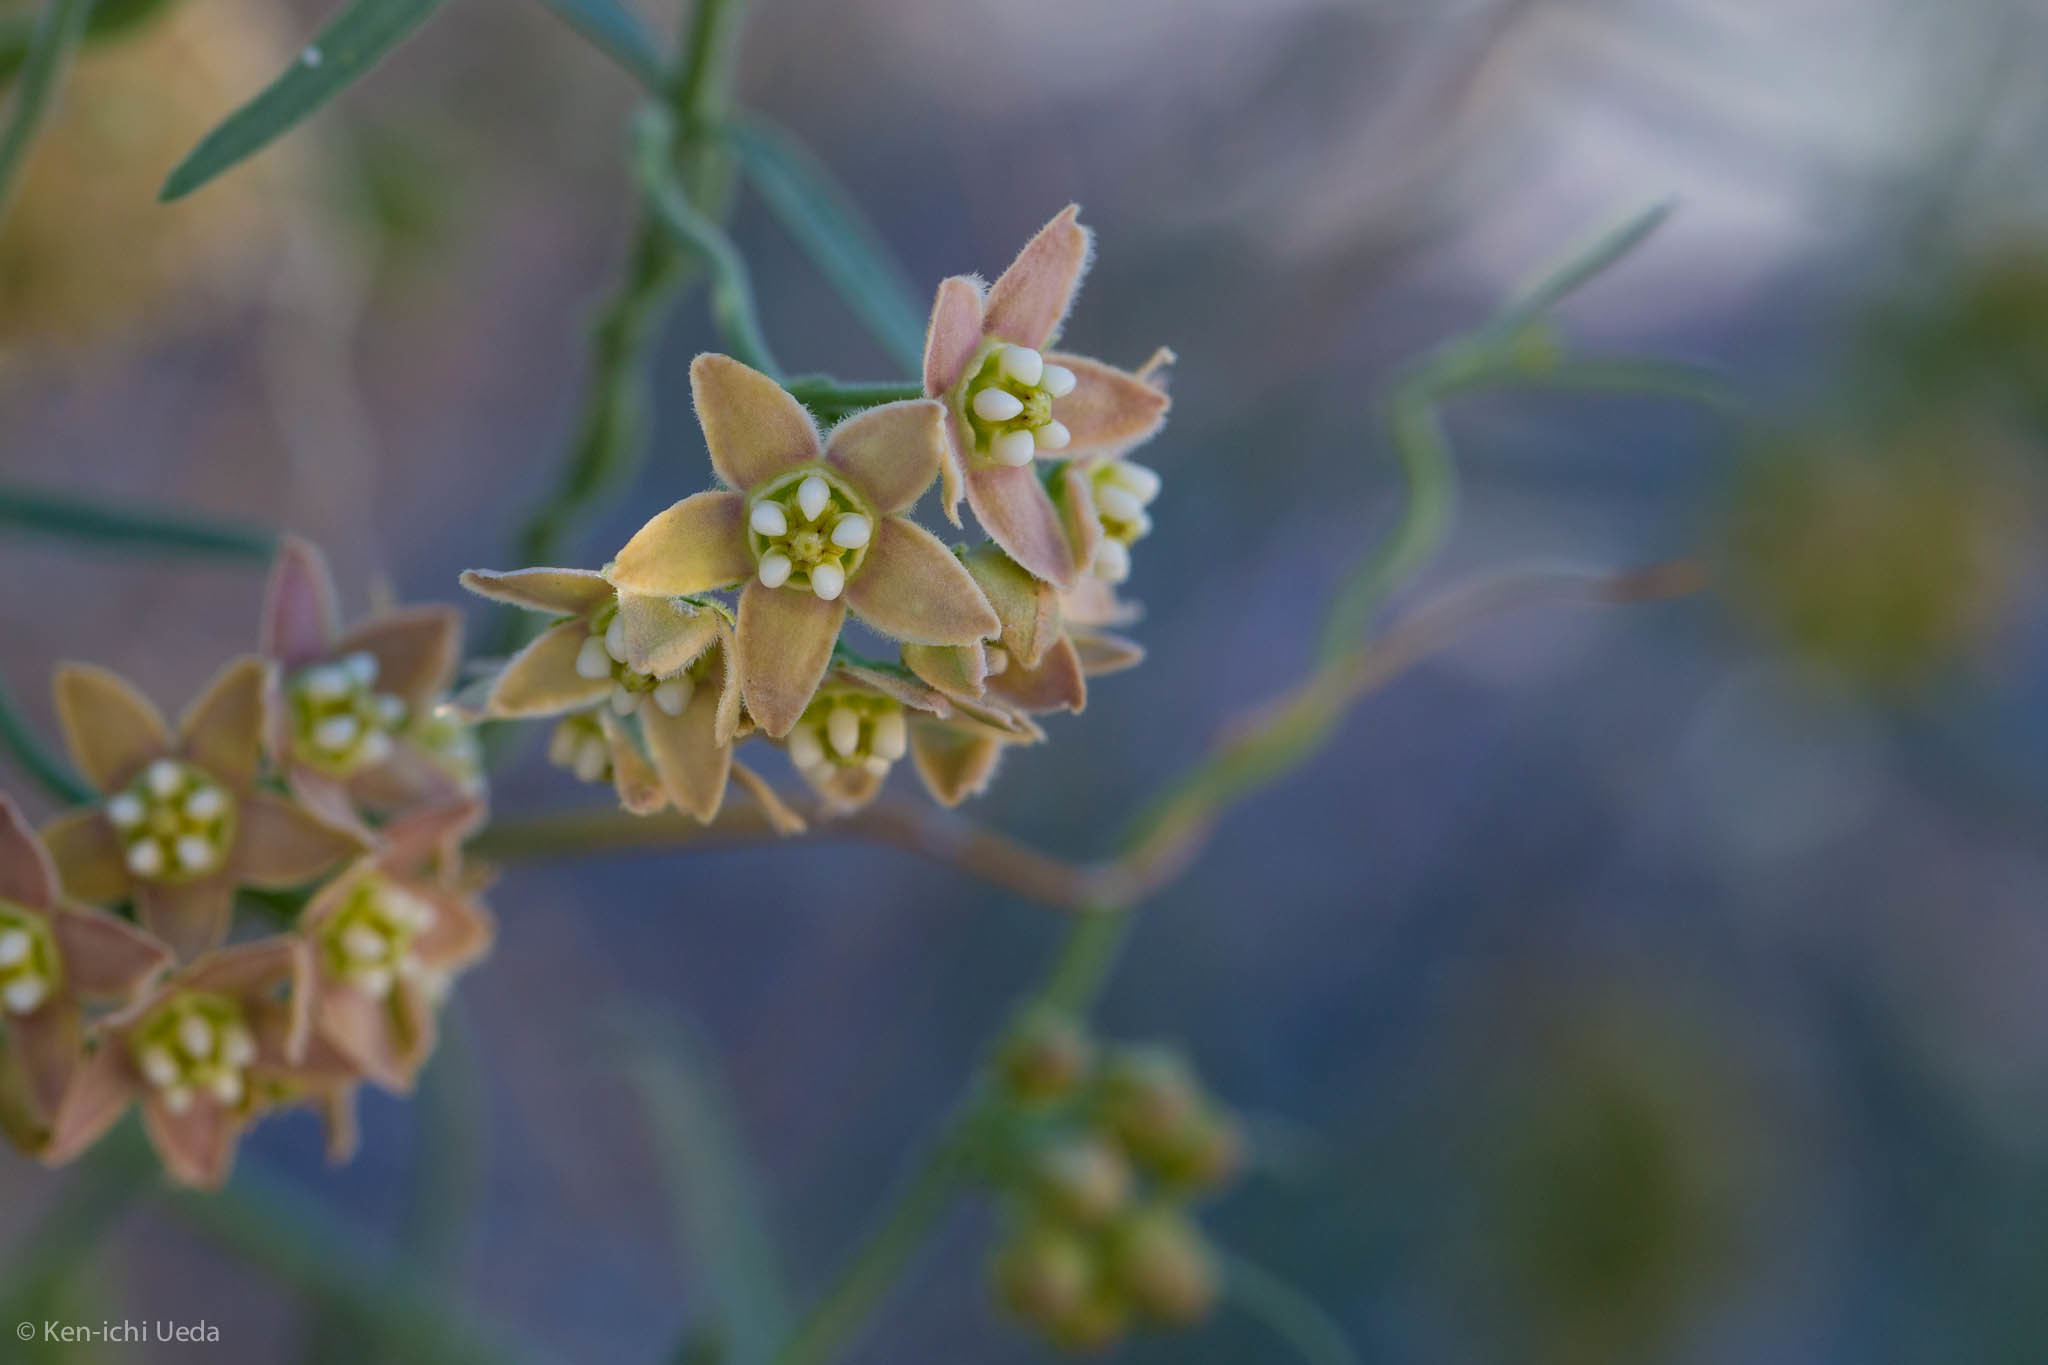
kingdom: Plantae
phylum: Tracheophyta
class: Magnoliopsida
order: Gentianales
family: Apocynaceae
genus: Funastrum
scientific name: Funastrum hirtellum
